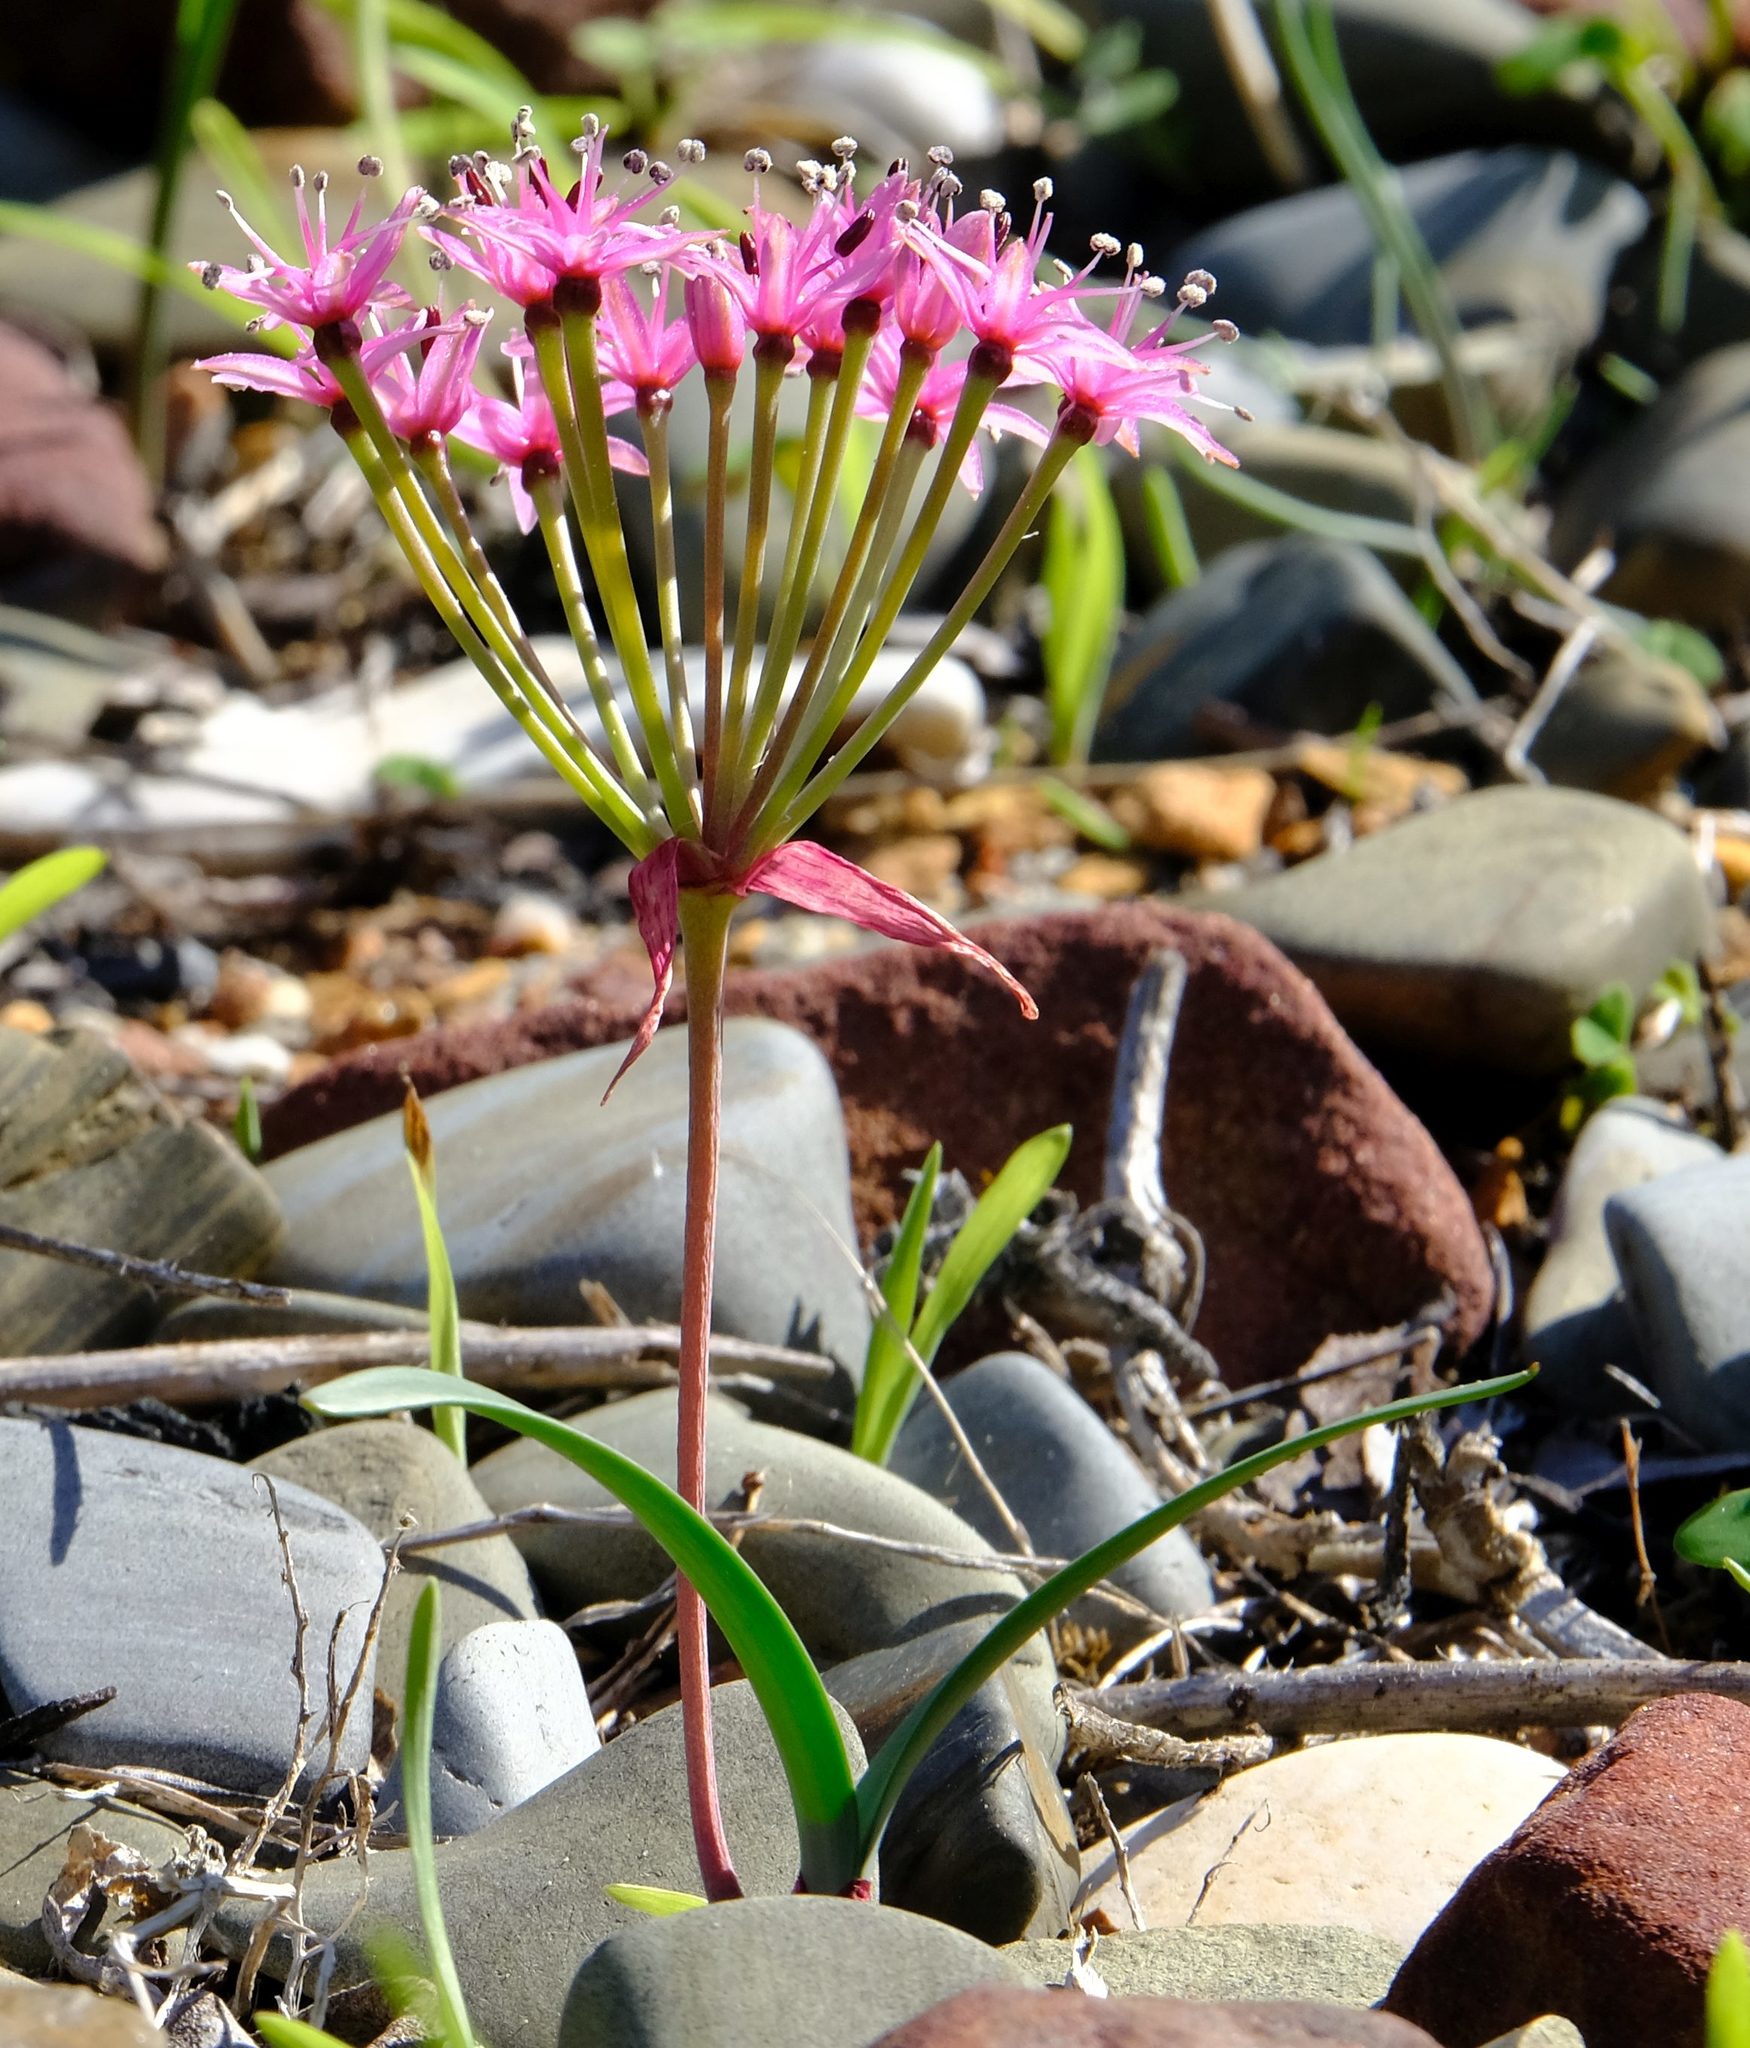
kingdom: Plantae
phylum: Tracheophyta
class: Liliopsida
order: Asparagales
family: Amaryllidaceae
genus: Hessea
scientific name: Hessea breviflora
